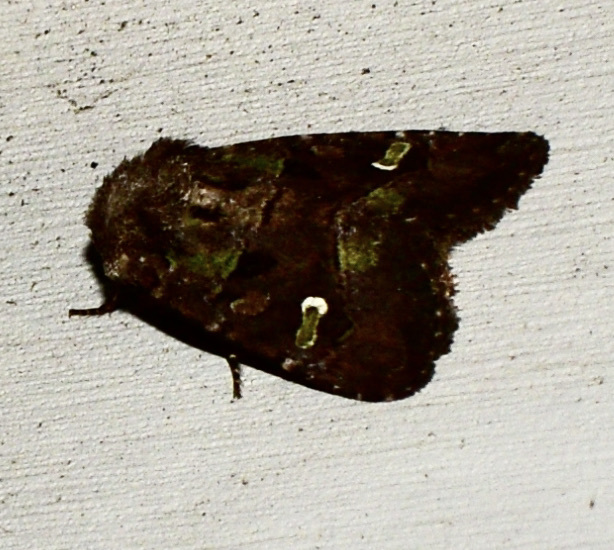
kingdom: Animalia
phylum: Arthropoda
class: Insecta
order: Lepidoptera
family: Noctuidae
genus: Lacinipolia
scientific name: Lacinipolia renigera
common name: Kidney-spotted minor
